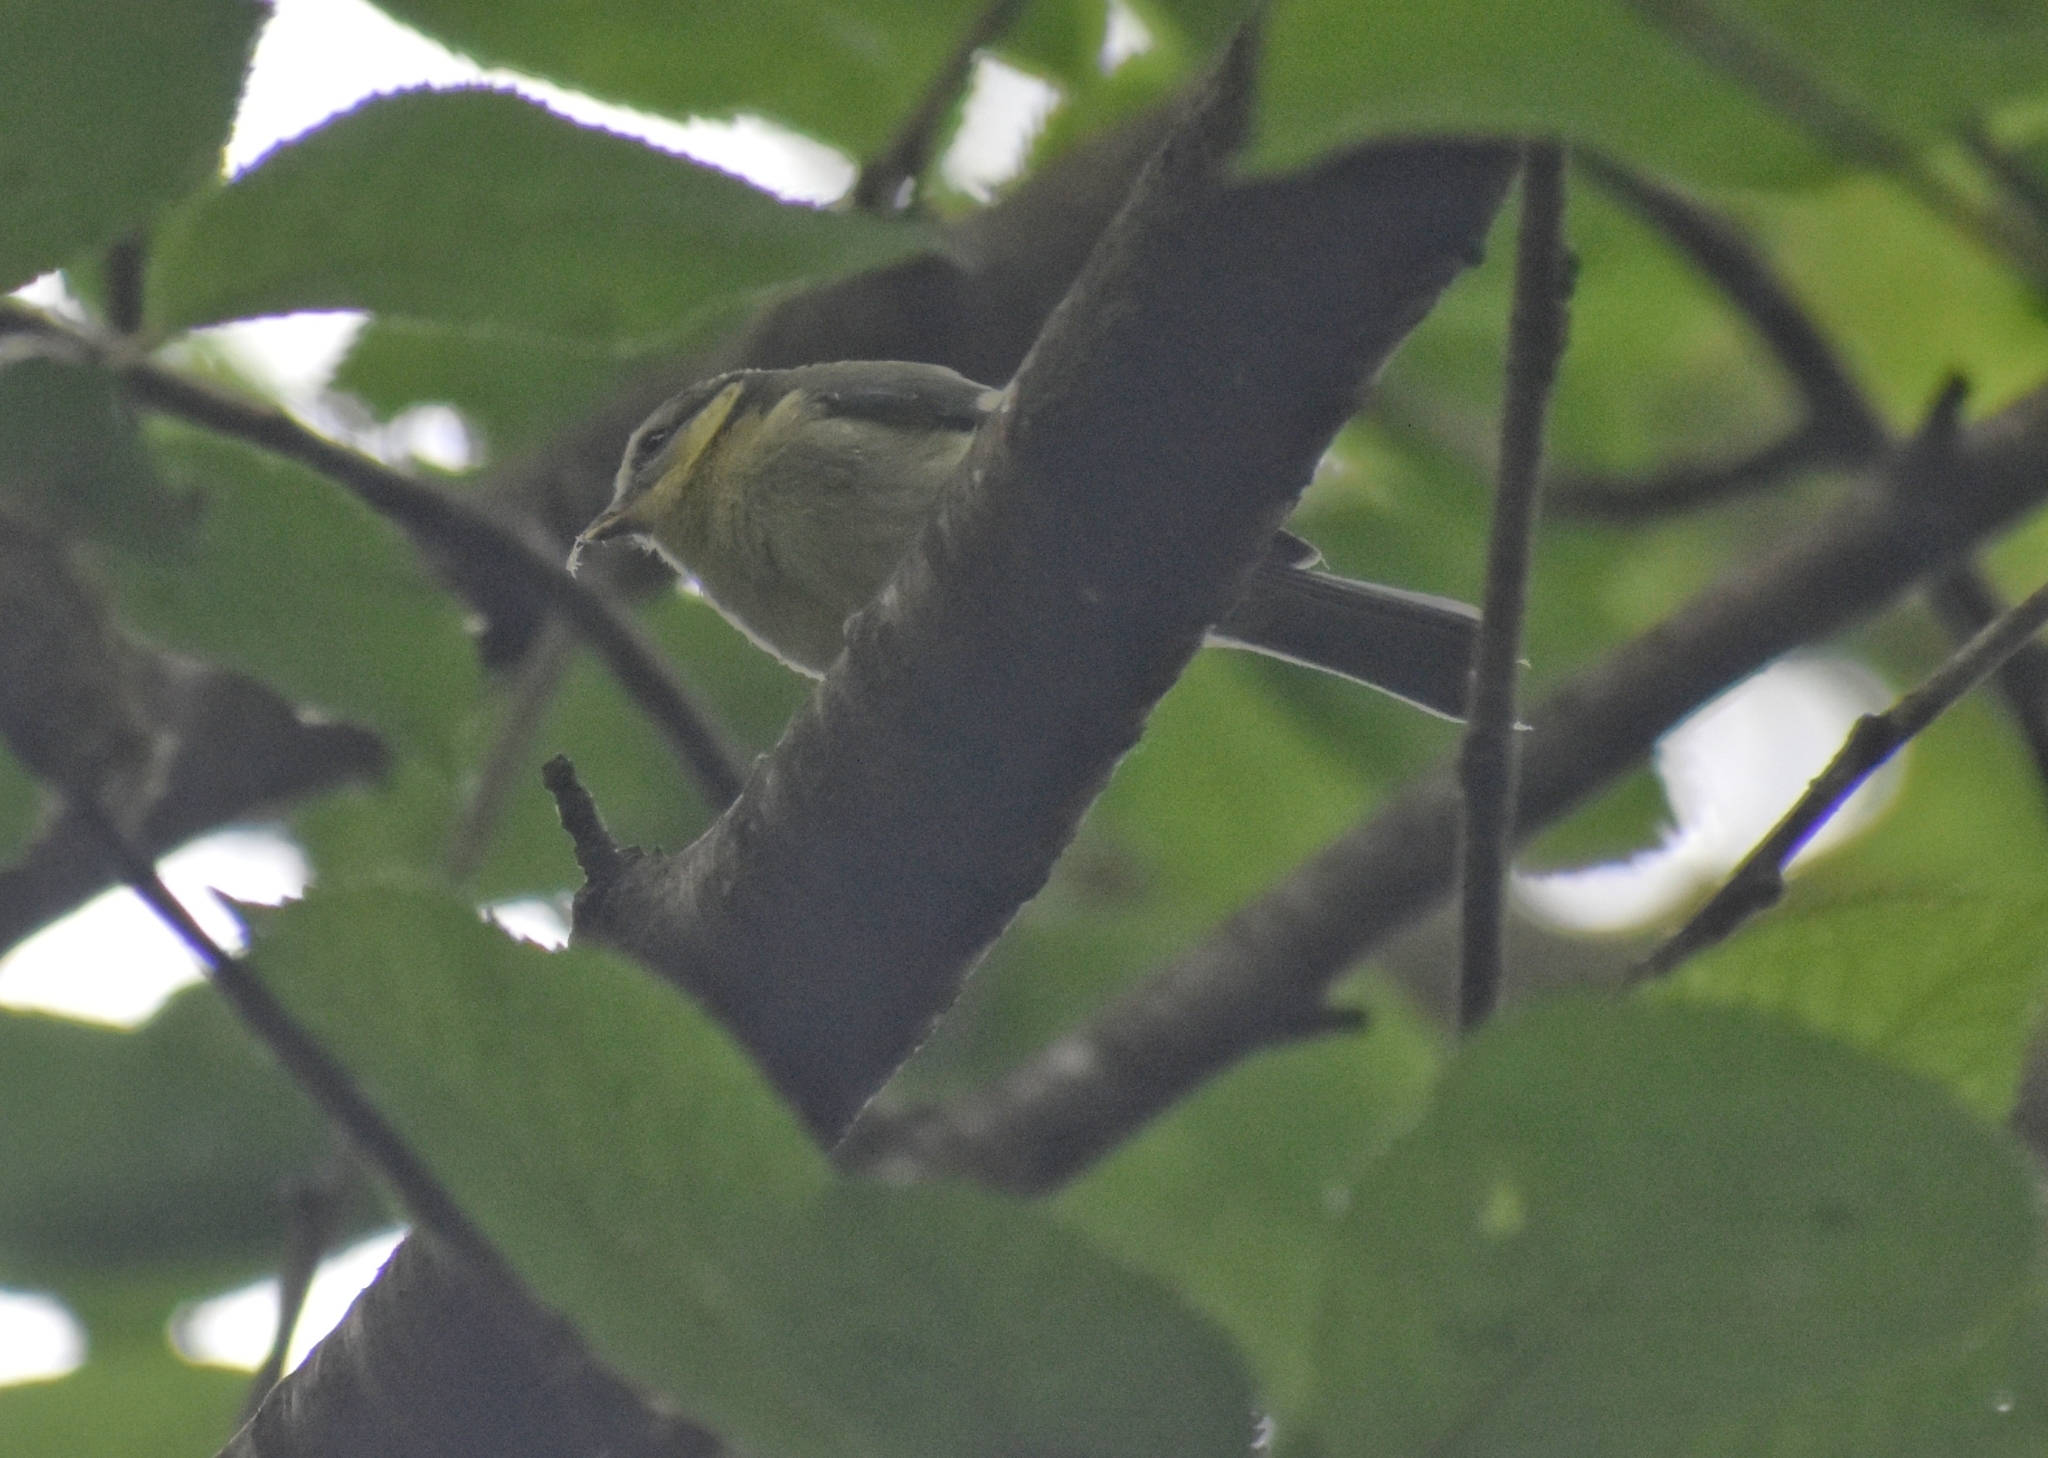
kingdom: Animalia
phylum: Chordata
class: Aves
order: Passeriformes
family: Paridae
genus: Cyanistes
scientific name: Cyanistes caeruleus
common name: Eurasian blue tit
